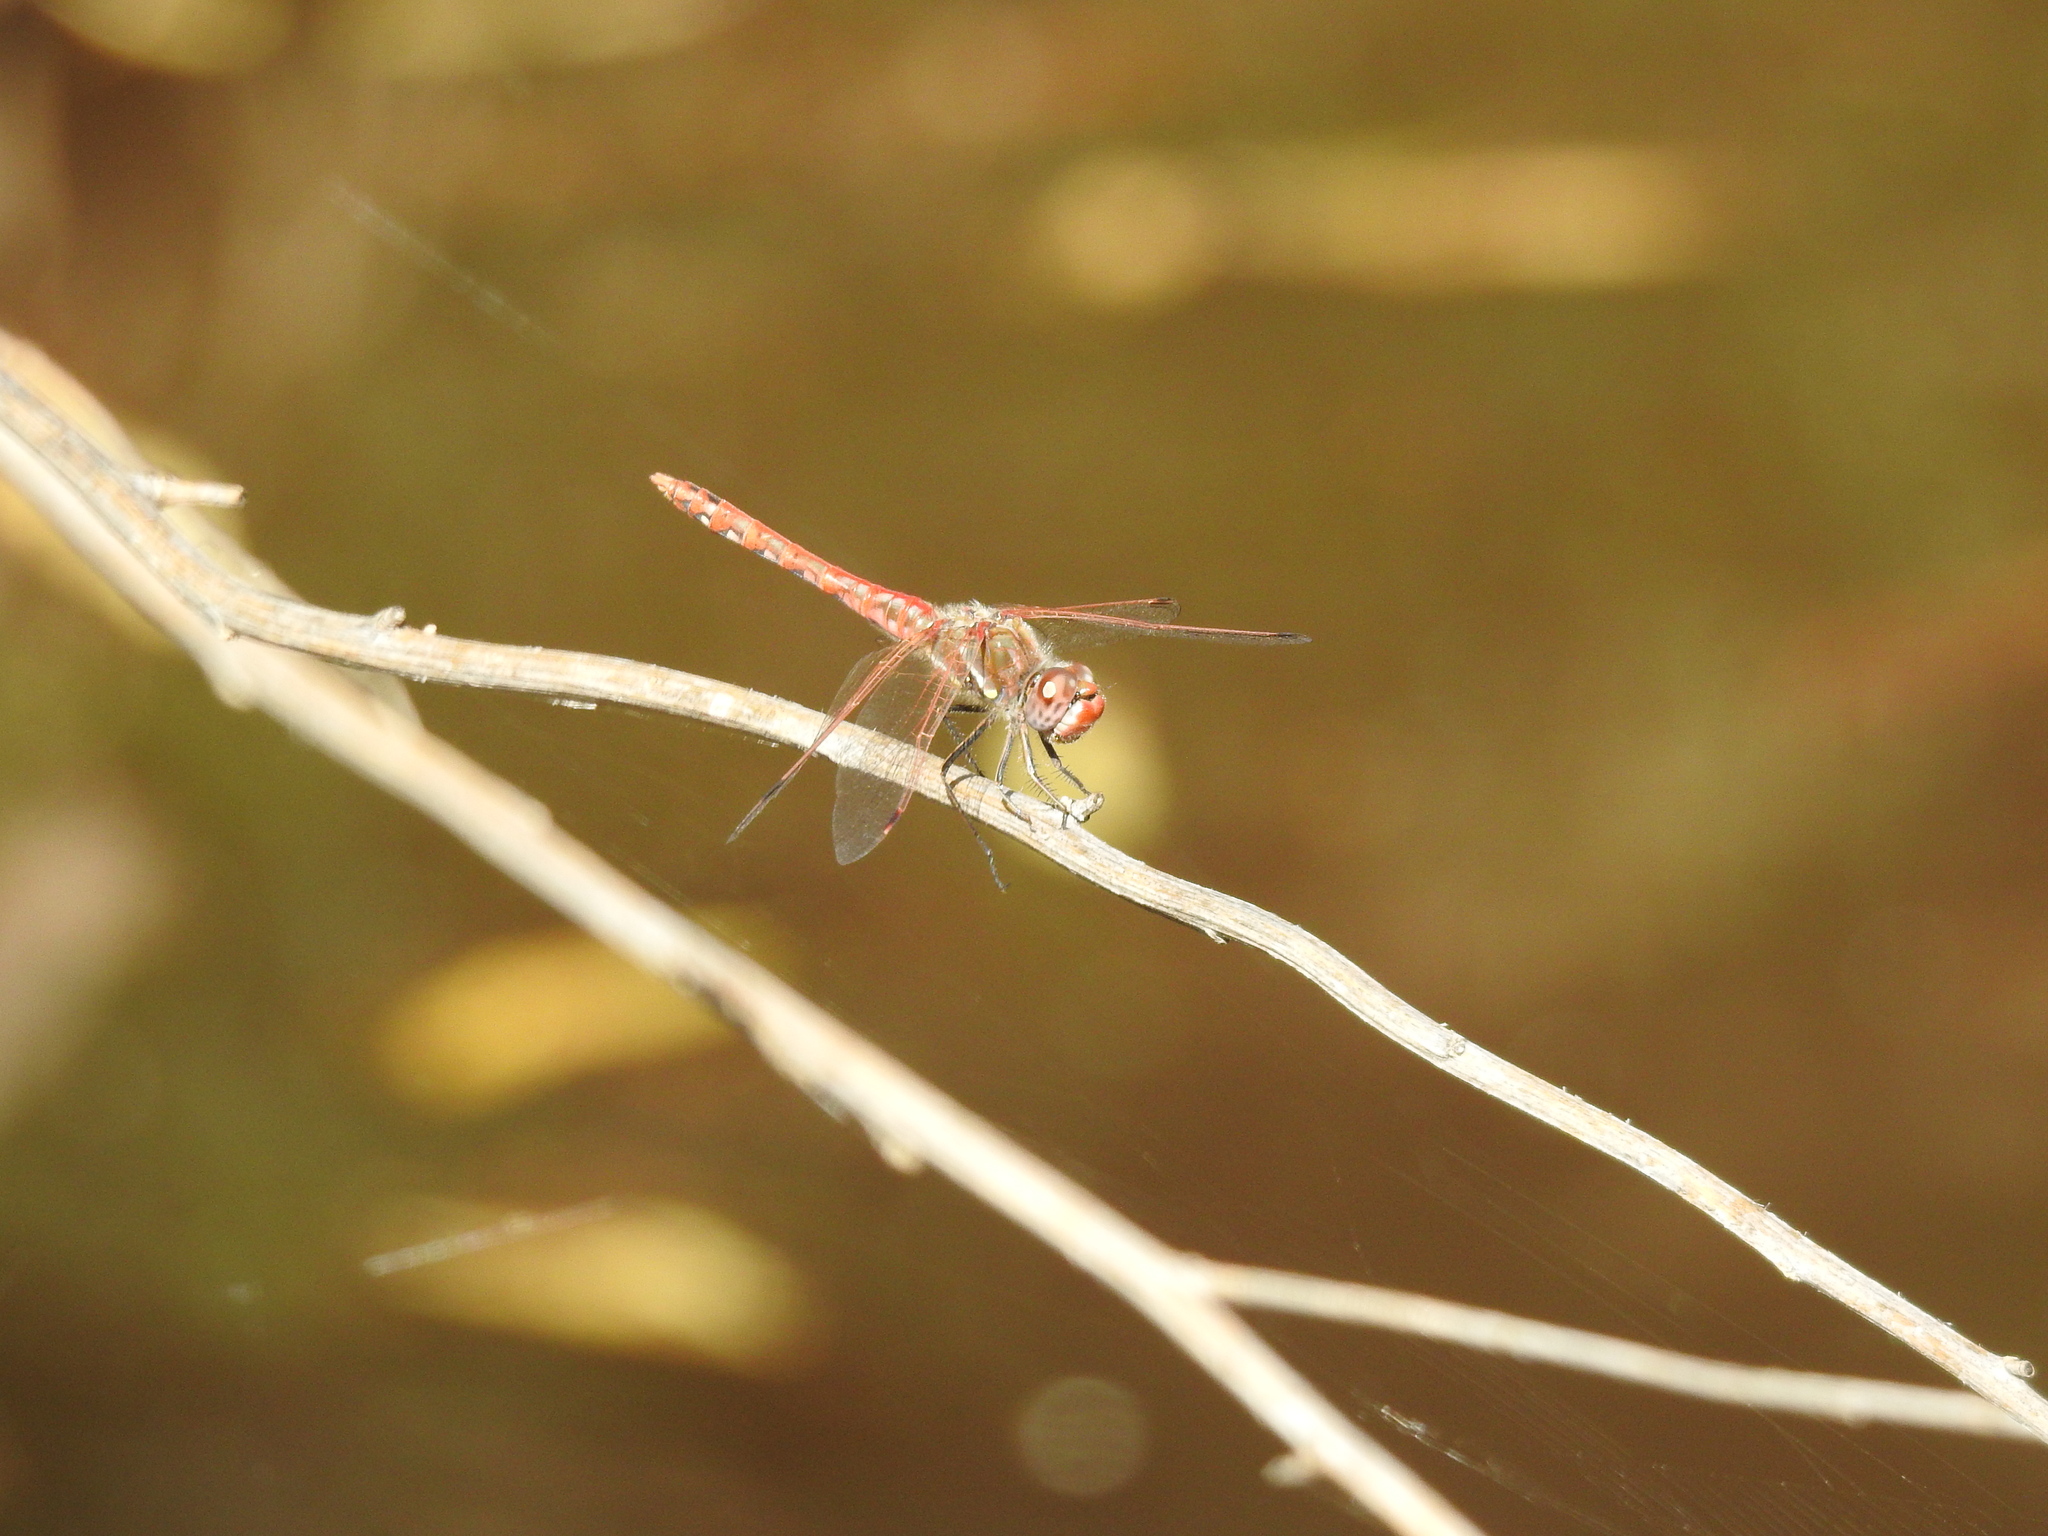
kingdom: Animalia
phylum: Arthropoda
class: Insecta
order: Odonata
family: Libellulidae
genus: Sympetrum
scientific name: Sympetrum corruptum
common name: Variegated meadowhawk
